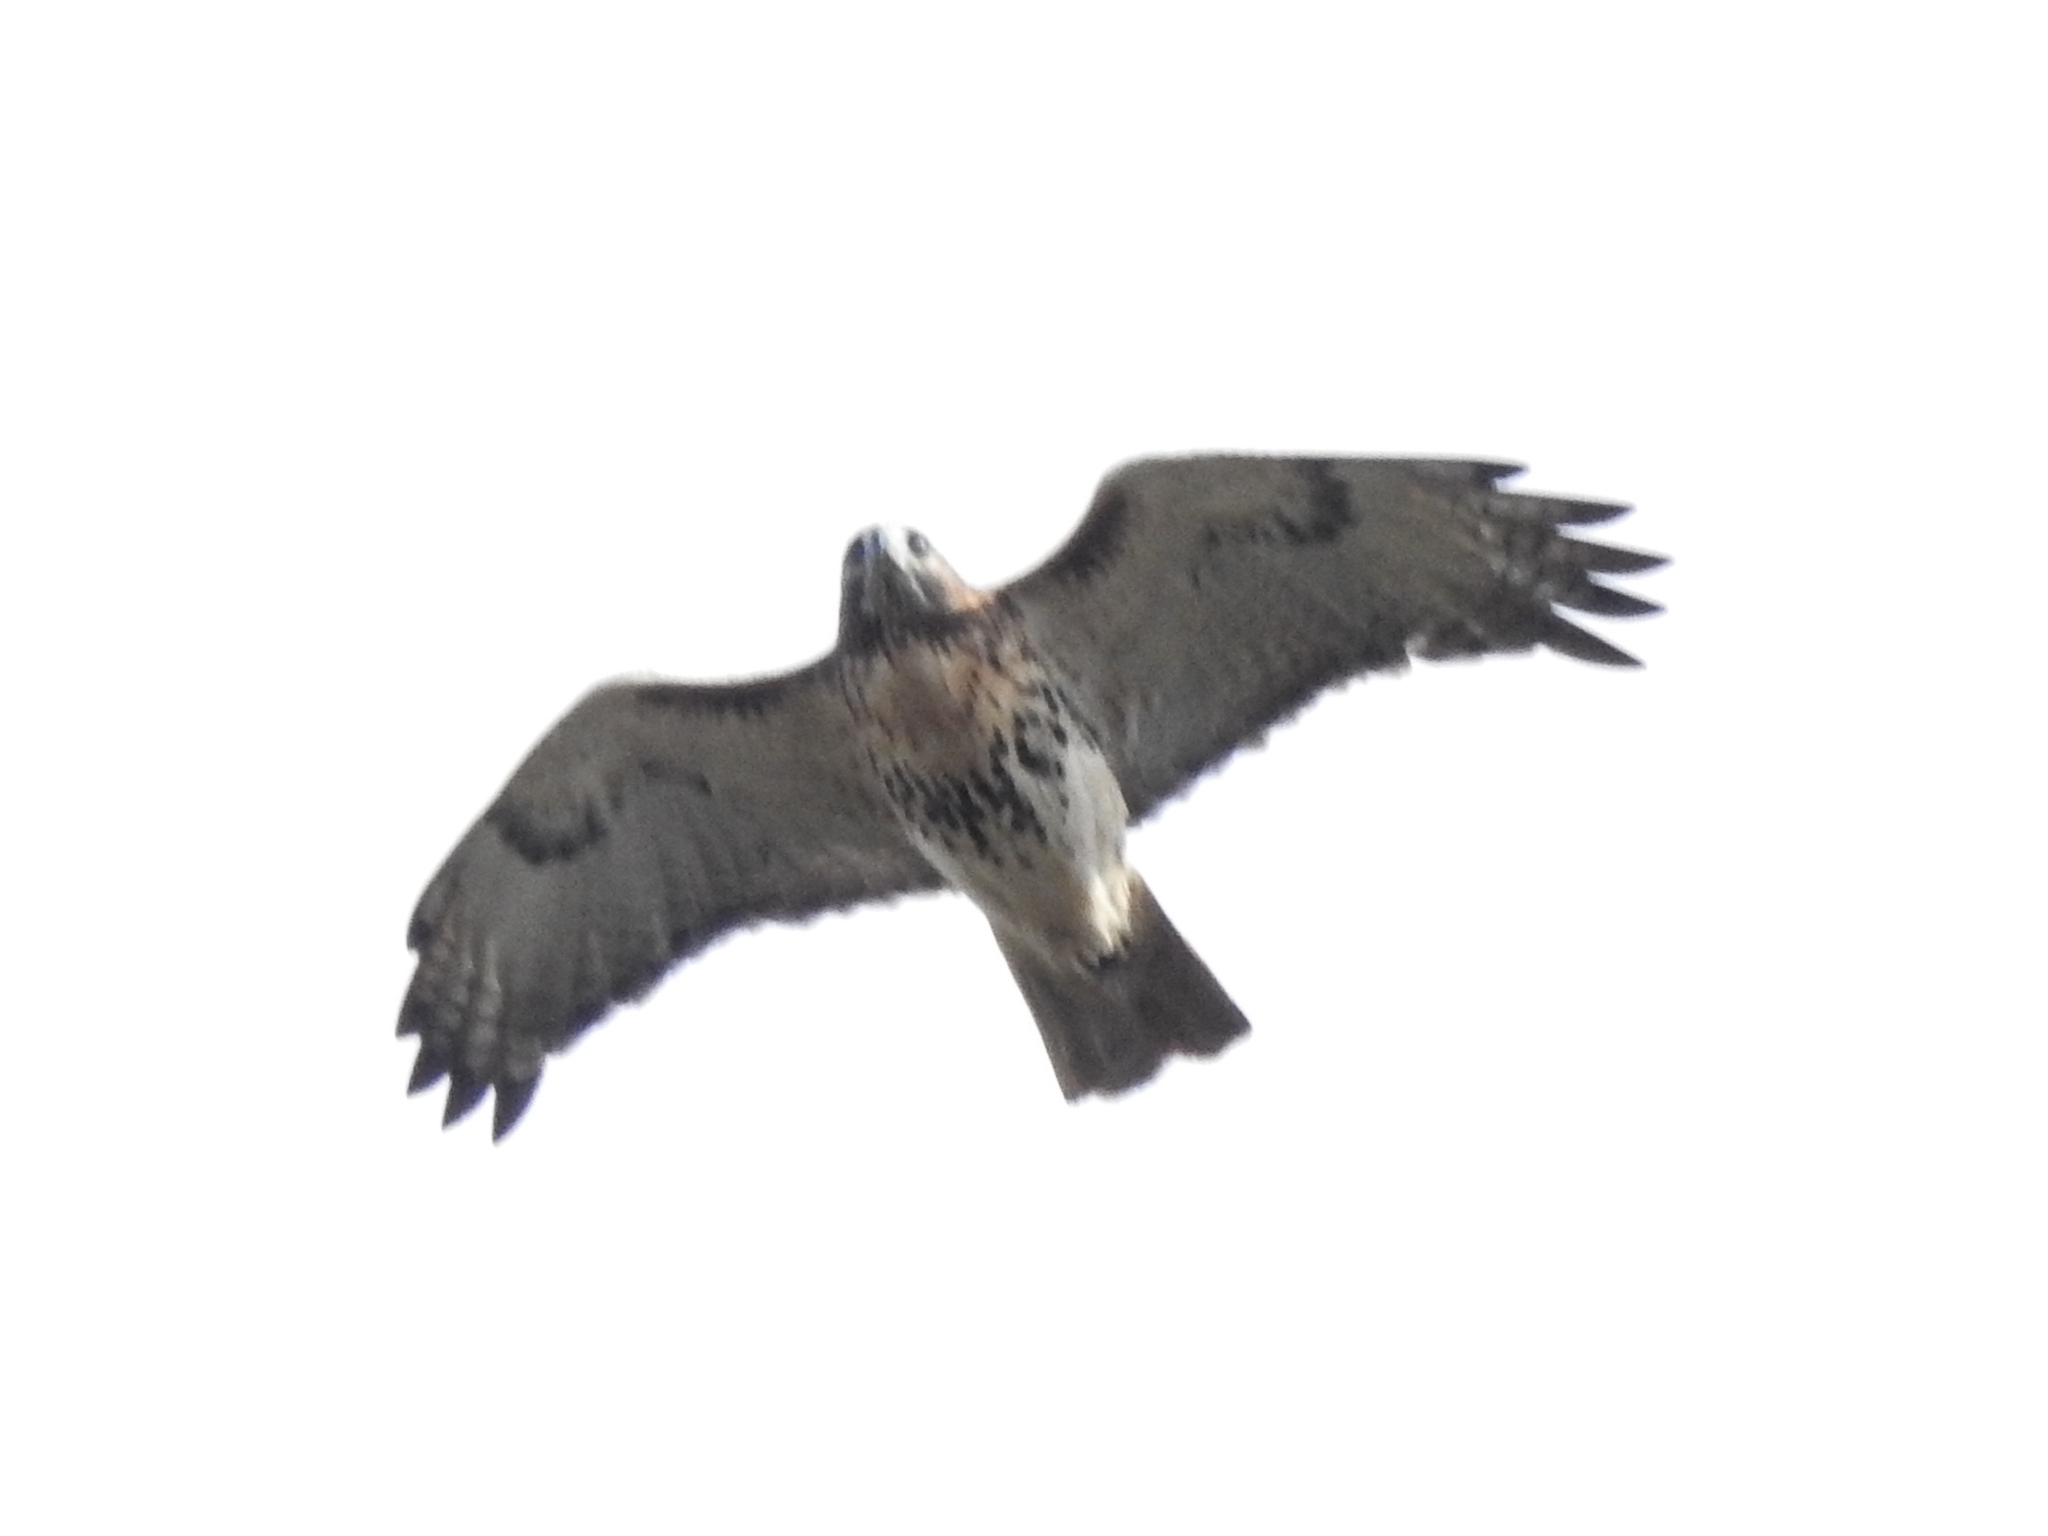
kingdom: Animalia
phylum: Chordata
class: Aves
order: Accipitriformes
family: Accipitridae
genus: Buteo
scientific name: Buteo jamaicensis
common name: Red-tailed hawk
